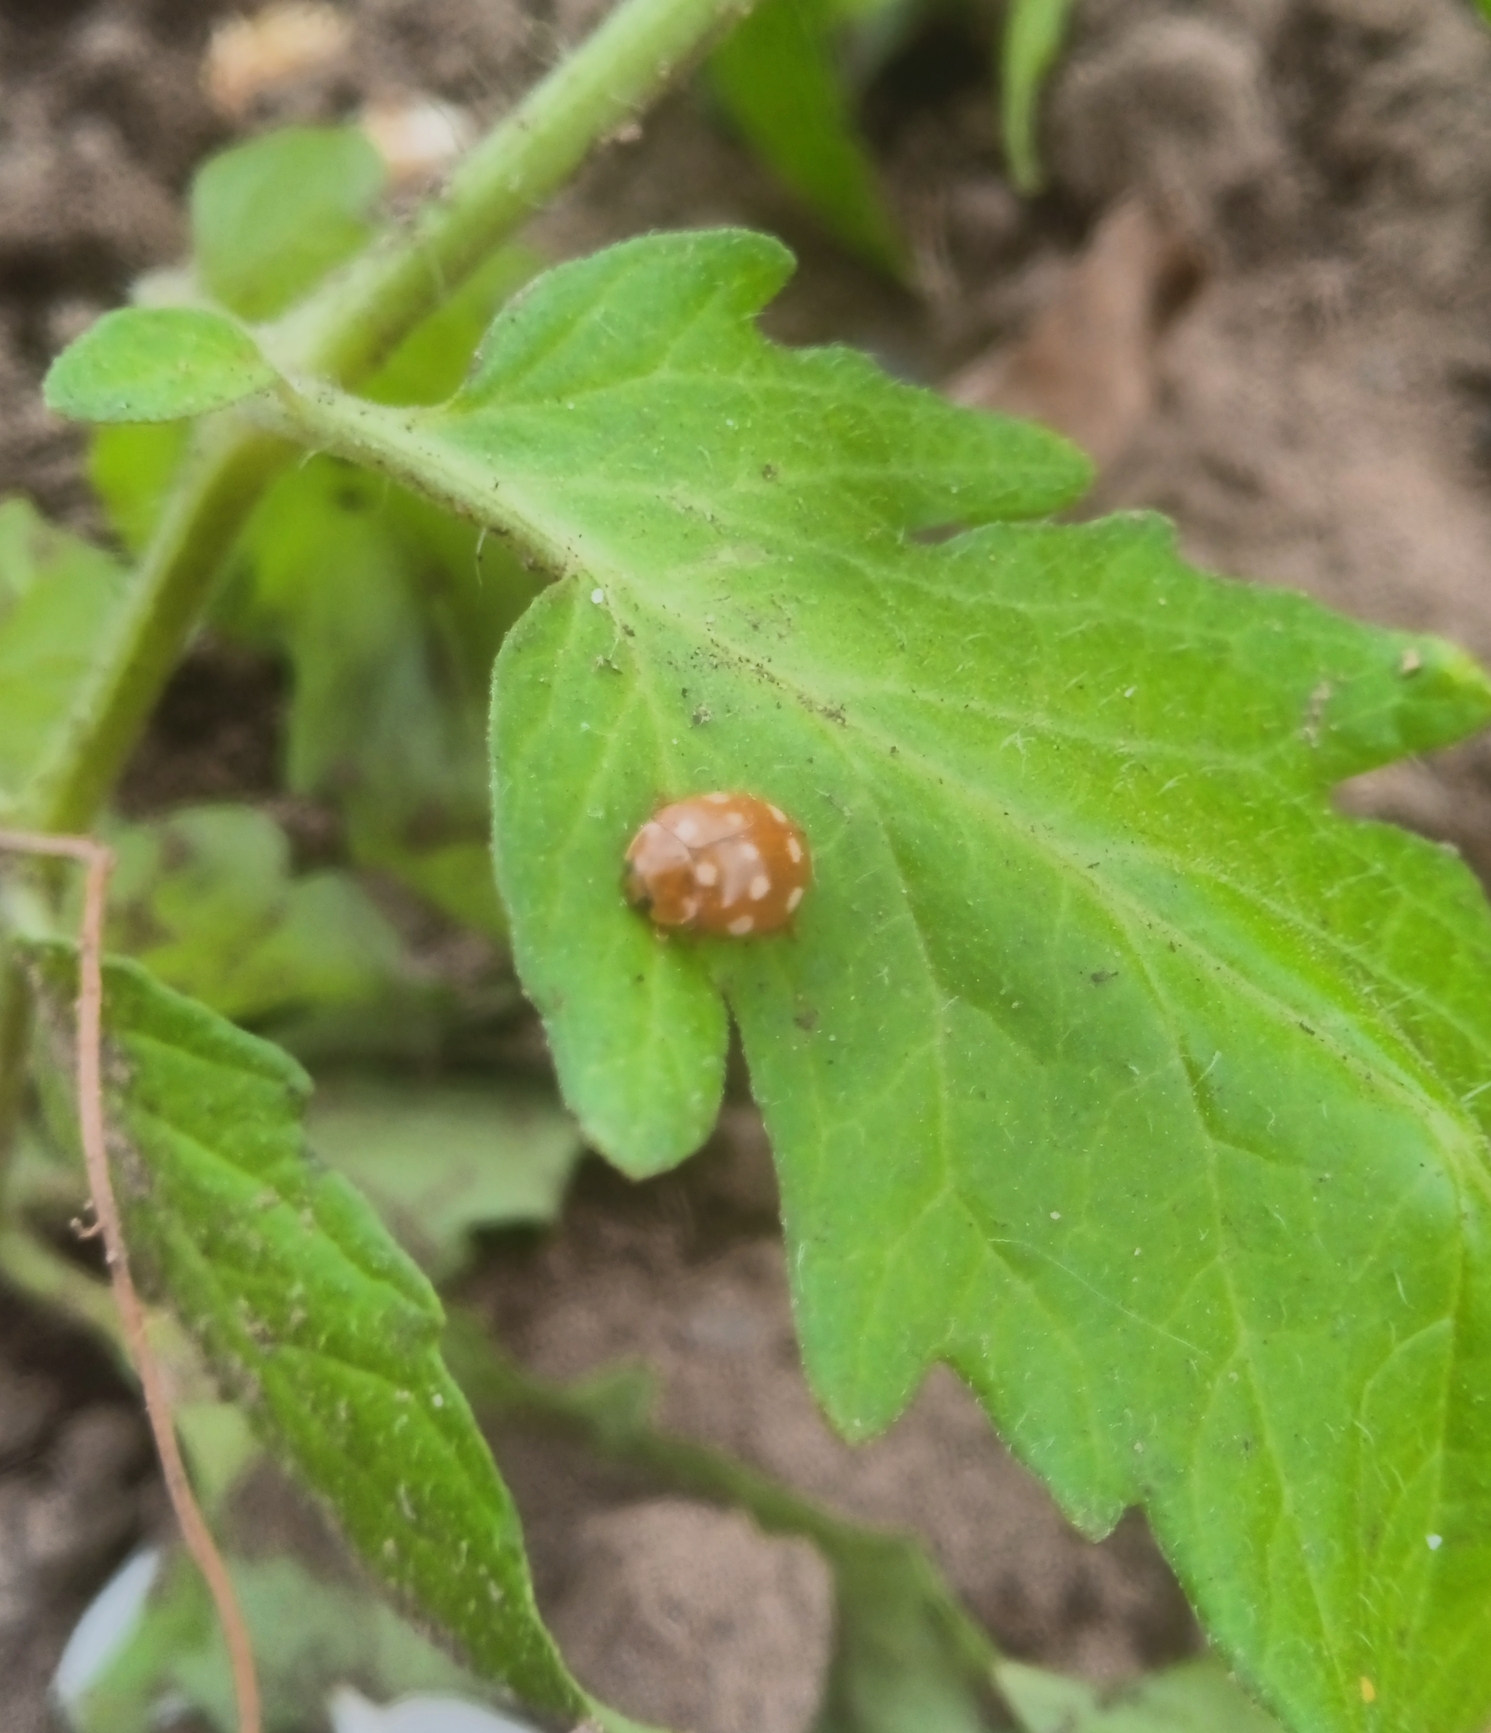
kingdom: Animalia
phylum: Arthropoda
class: Insecta
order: Coleoptera
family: Coccinellidae
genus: Calvia
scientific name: Calvia quatuordecimguttata
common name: Cream-spot ladybird
